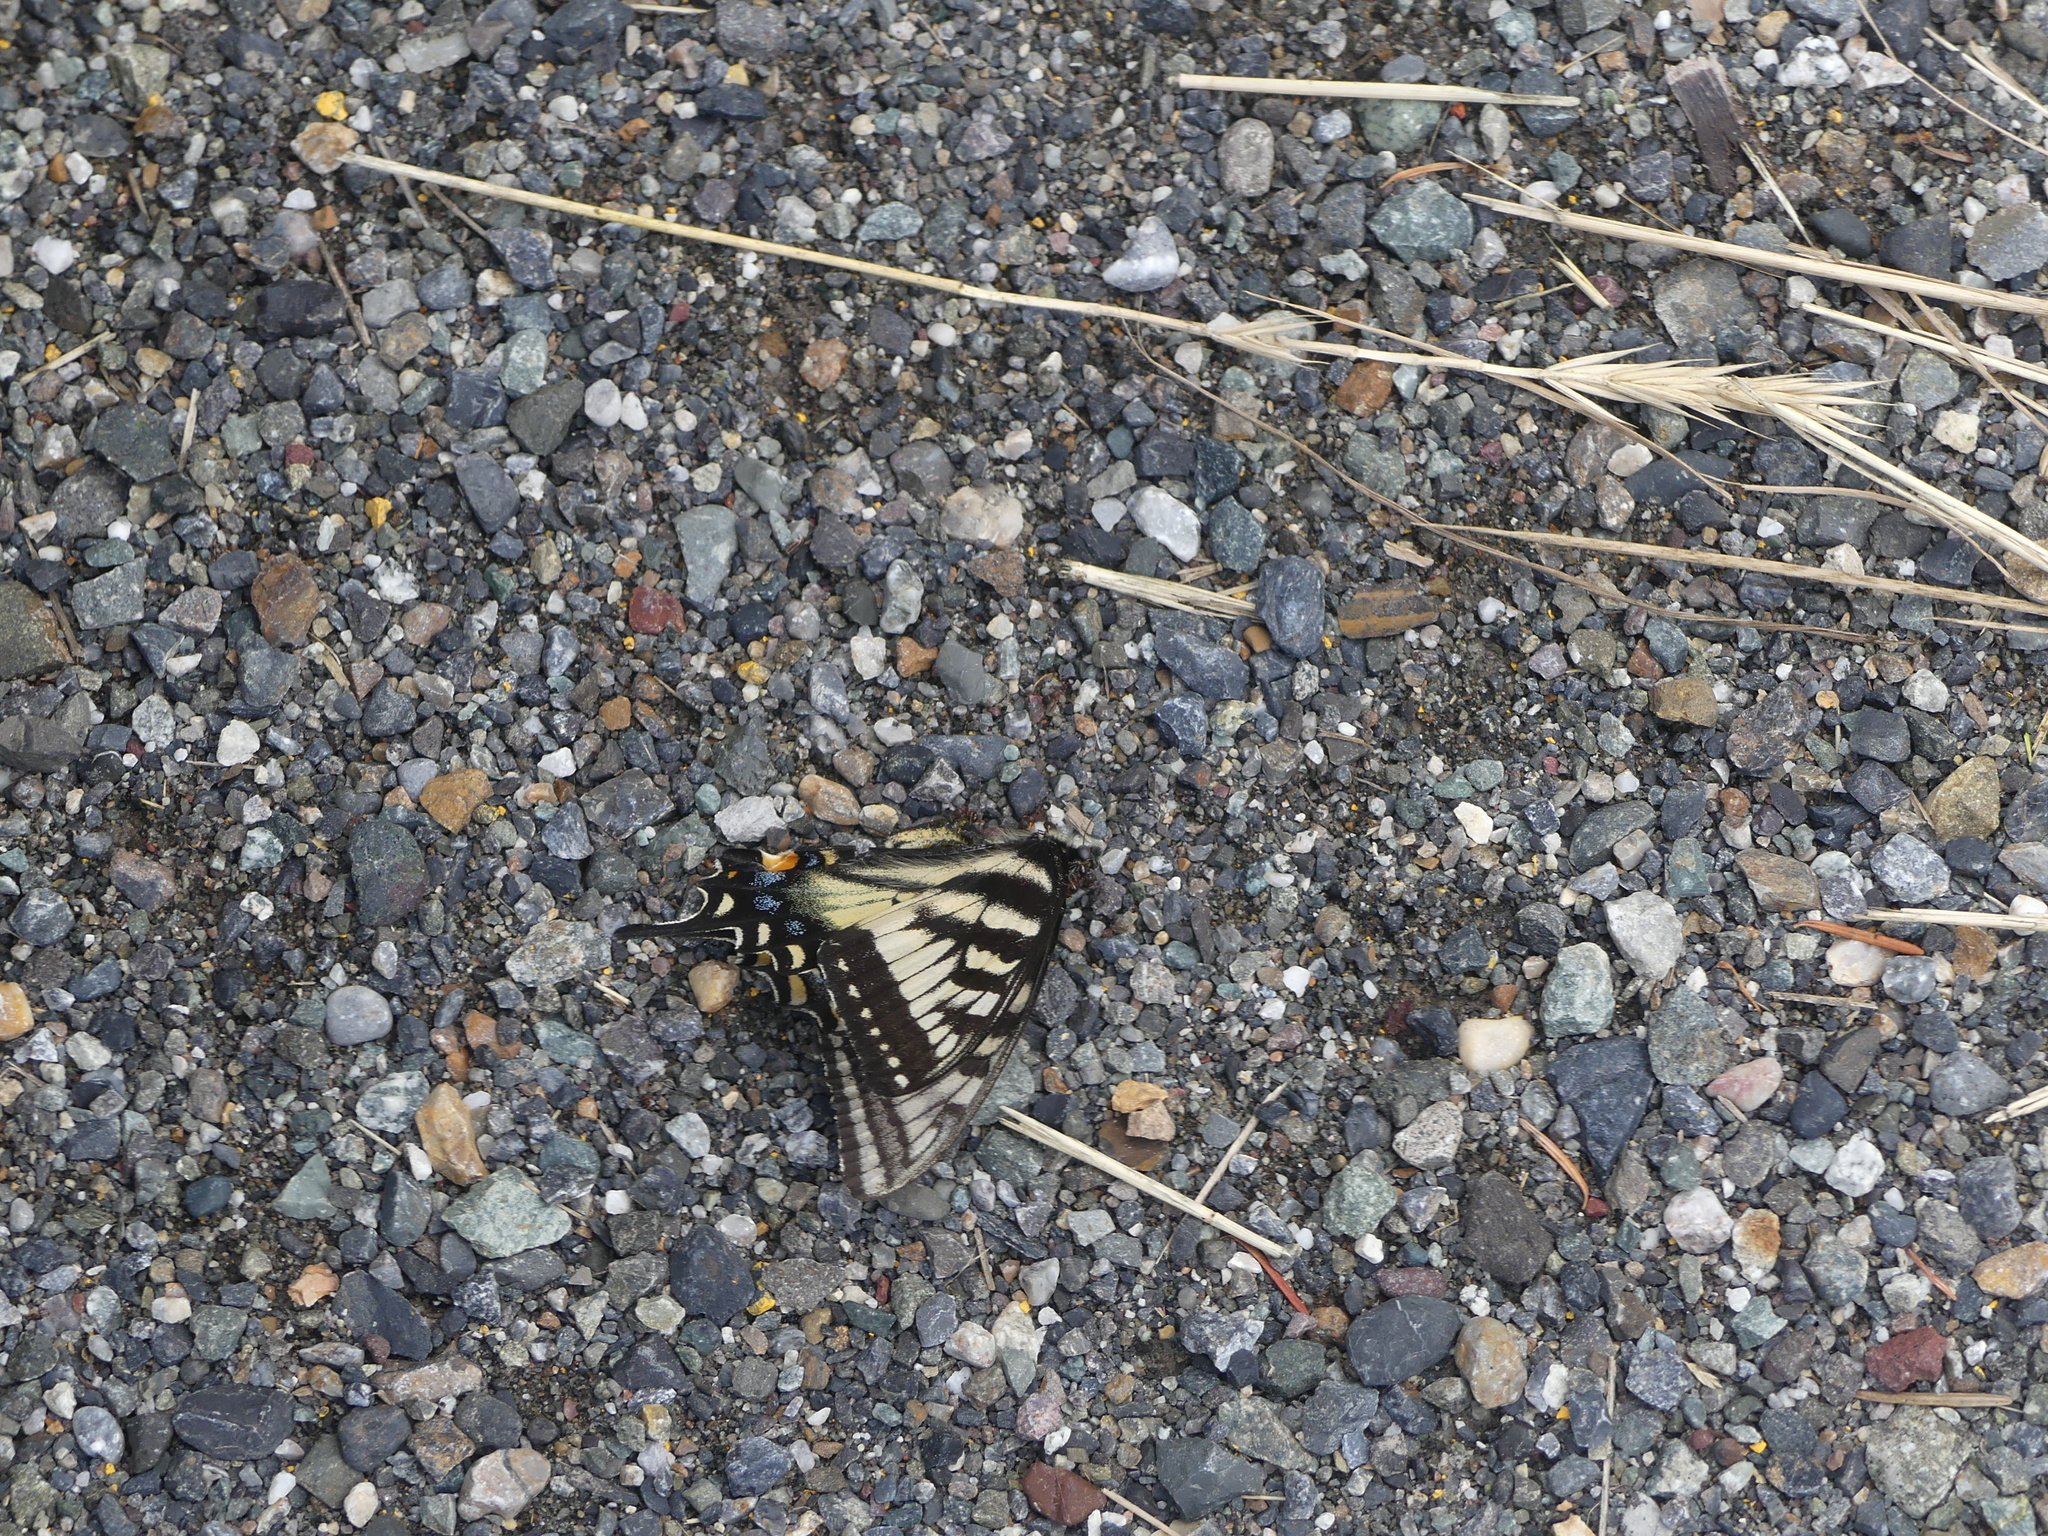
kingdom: Animalia
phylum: Arthropoda
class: Insecta
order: Lepidoptera
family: Papilionidae
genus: Papilio
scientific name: Papilio canadensis
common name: Canadian tiger swallowtail
